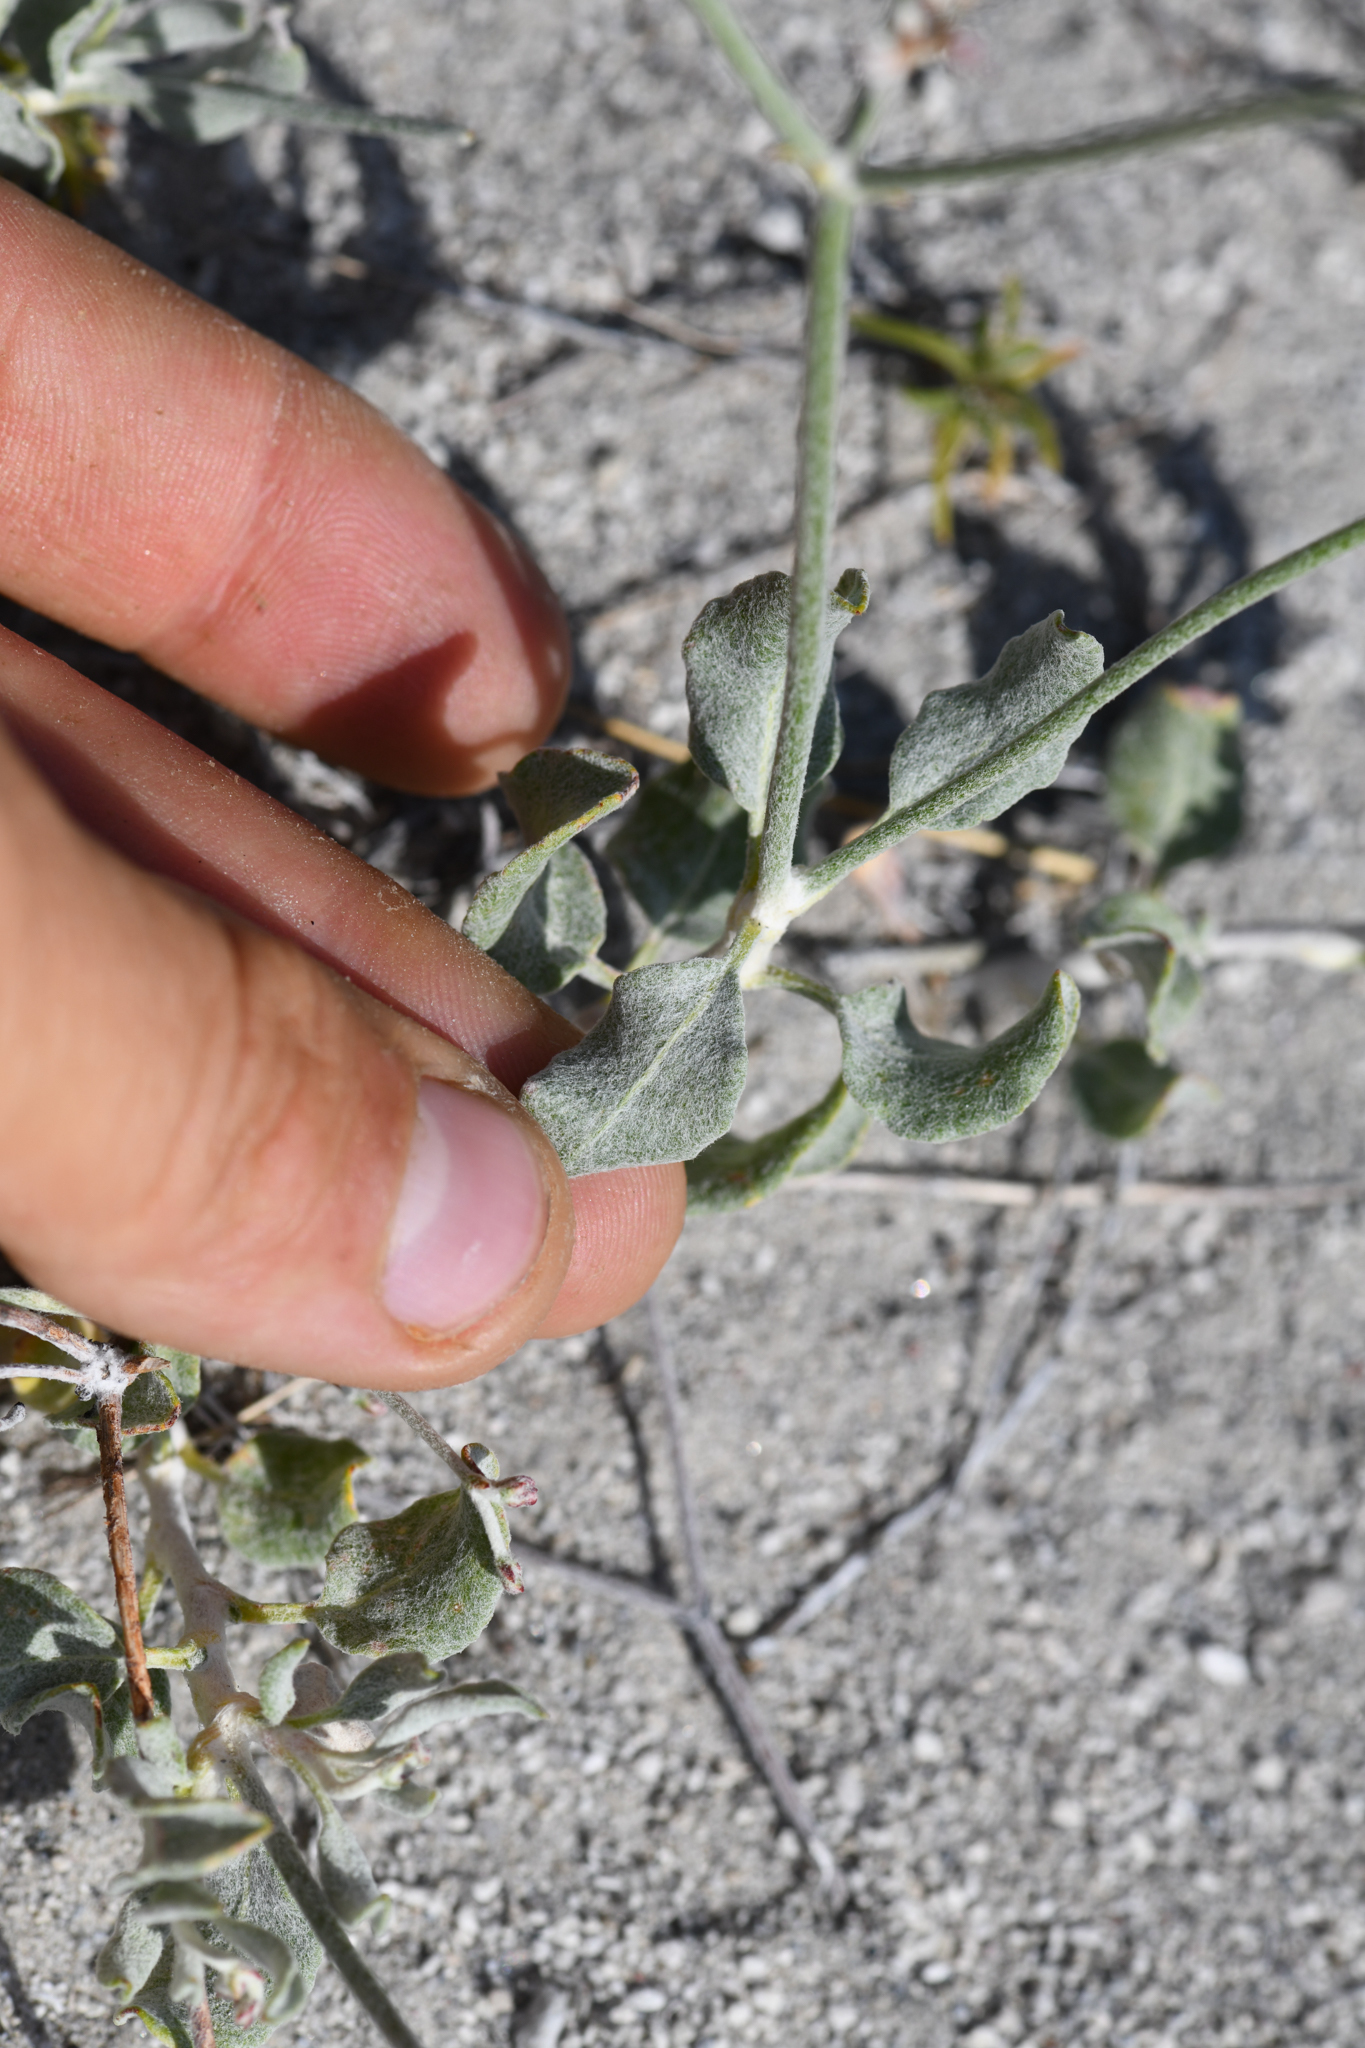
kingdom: Plantae
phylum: Tracheophyta
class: Magnoliopsida
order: Caryophyllales
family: Polygonaceae
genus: Eriogonum
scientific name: Eriogonum nummulare
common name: Kearney wild buckwheat
